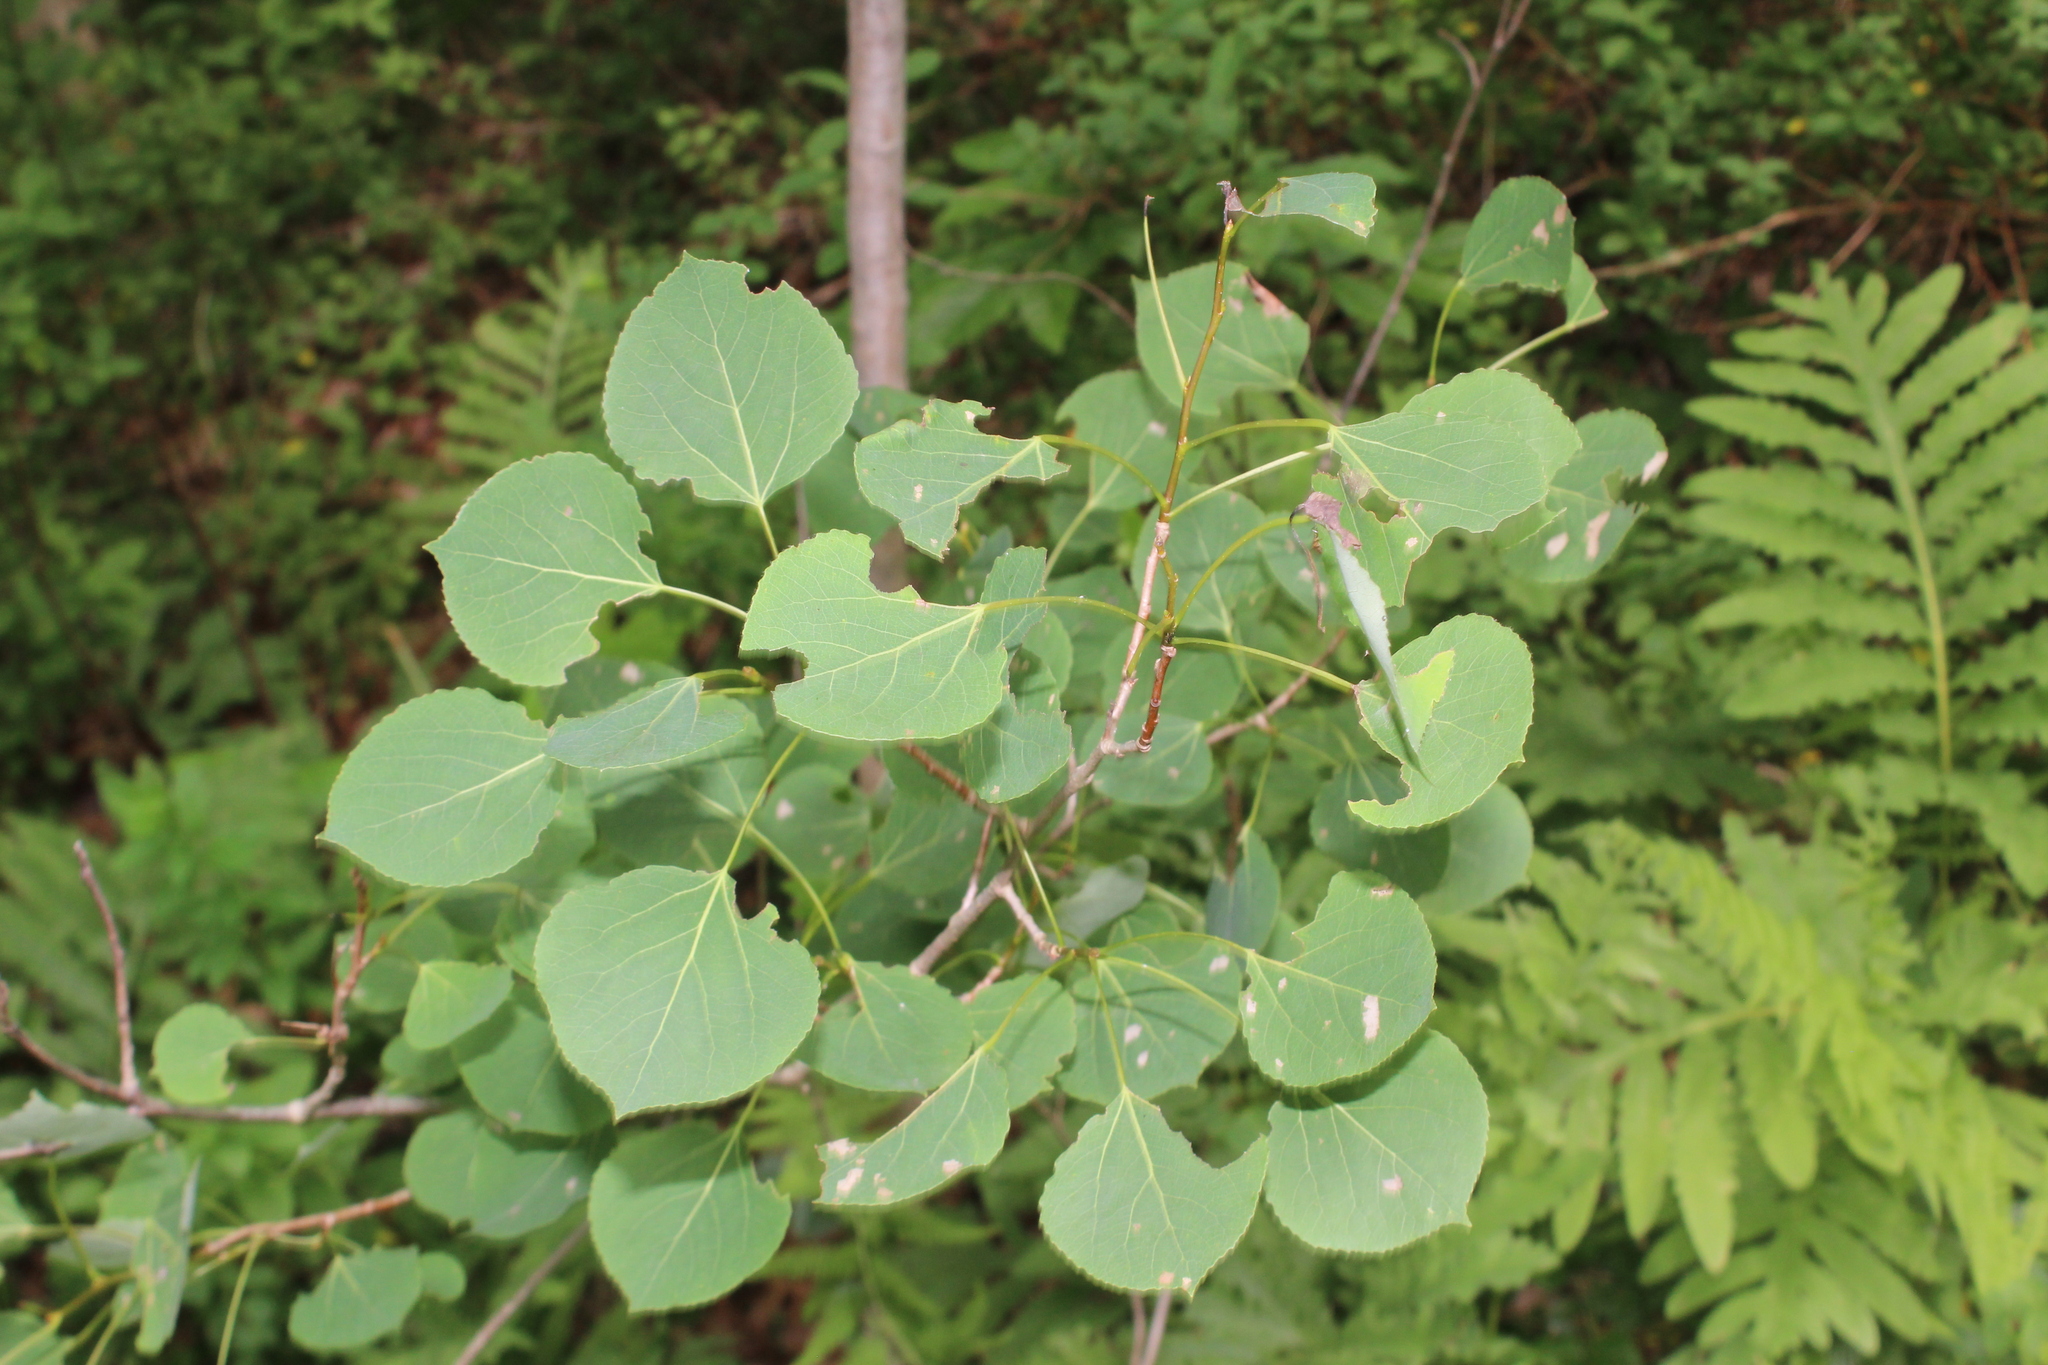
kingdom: Plantae
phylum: Tracheophyta
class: Magnoliopsida
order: Malpighiales
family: Salicaceae
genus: Populus
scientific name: Populus tremuloides
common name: Quaking aspen
